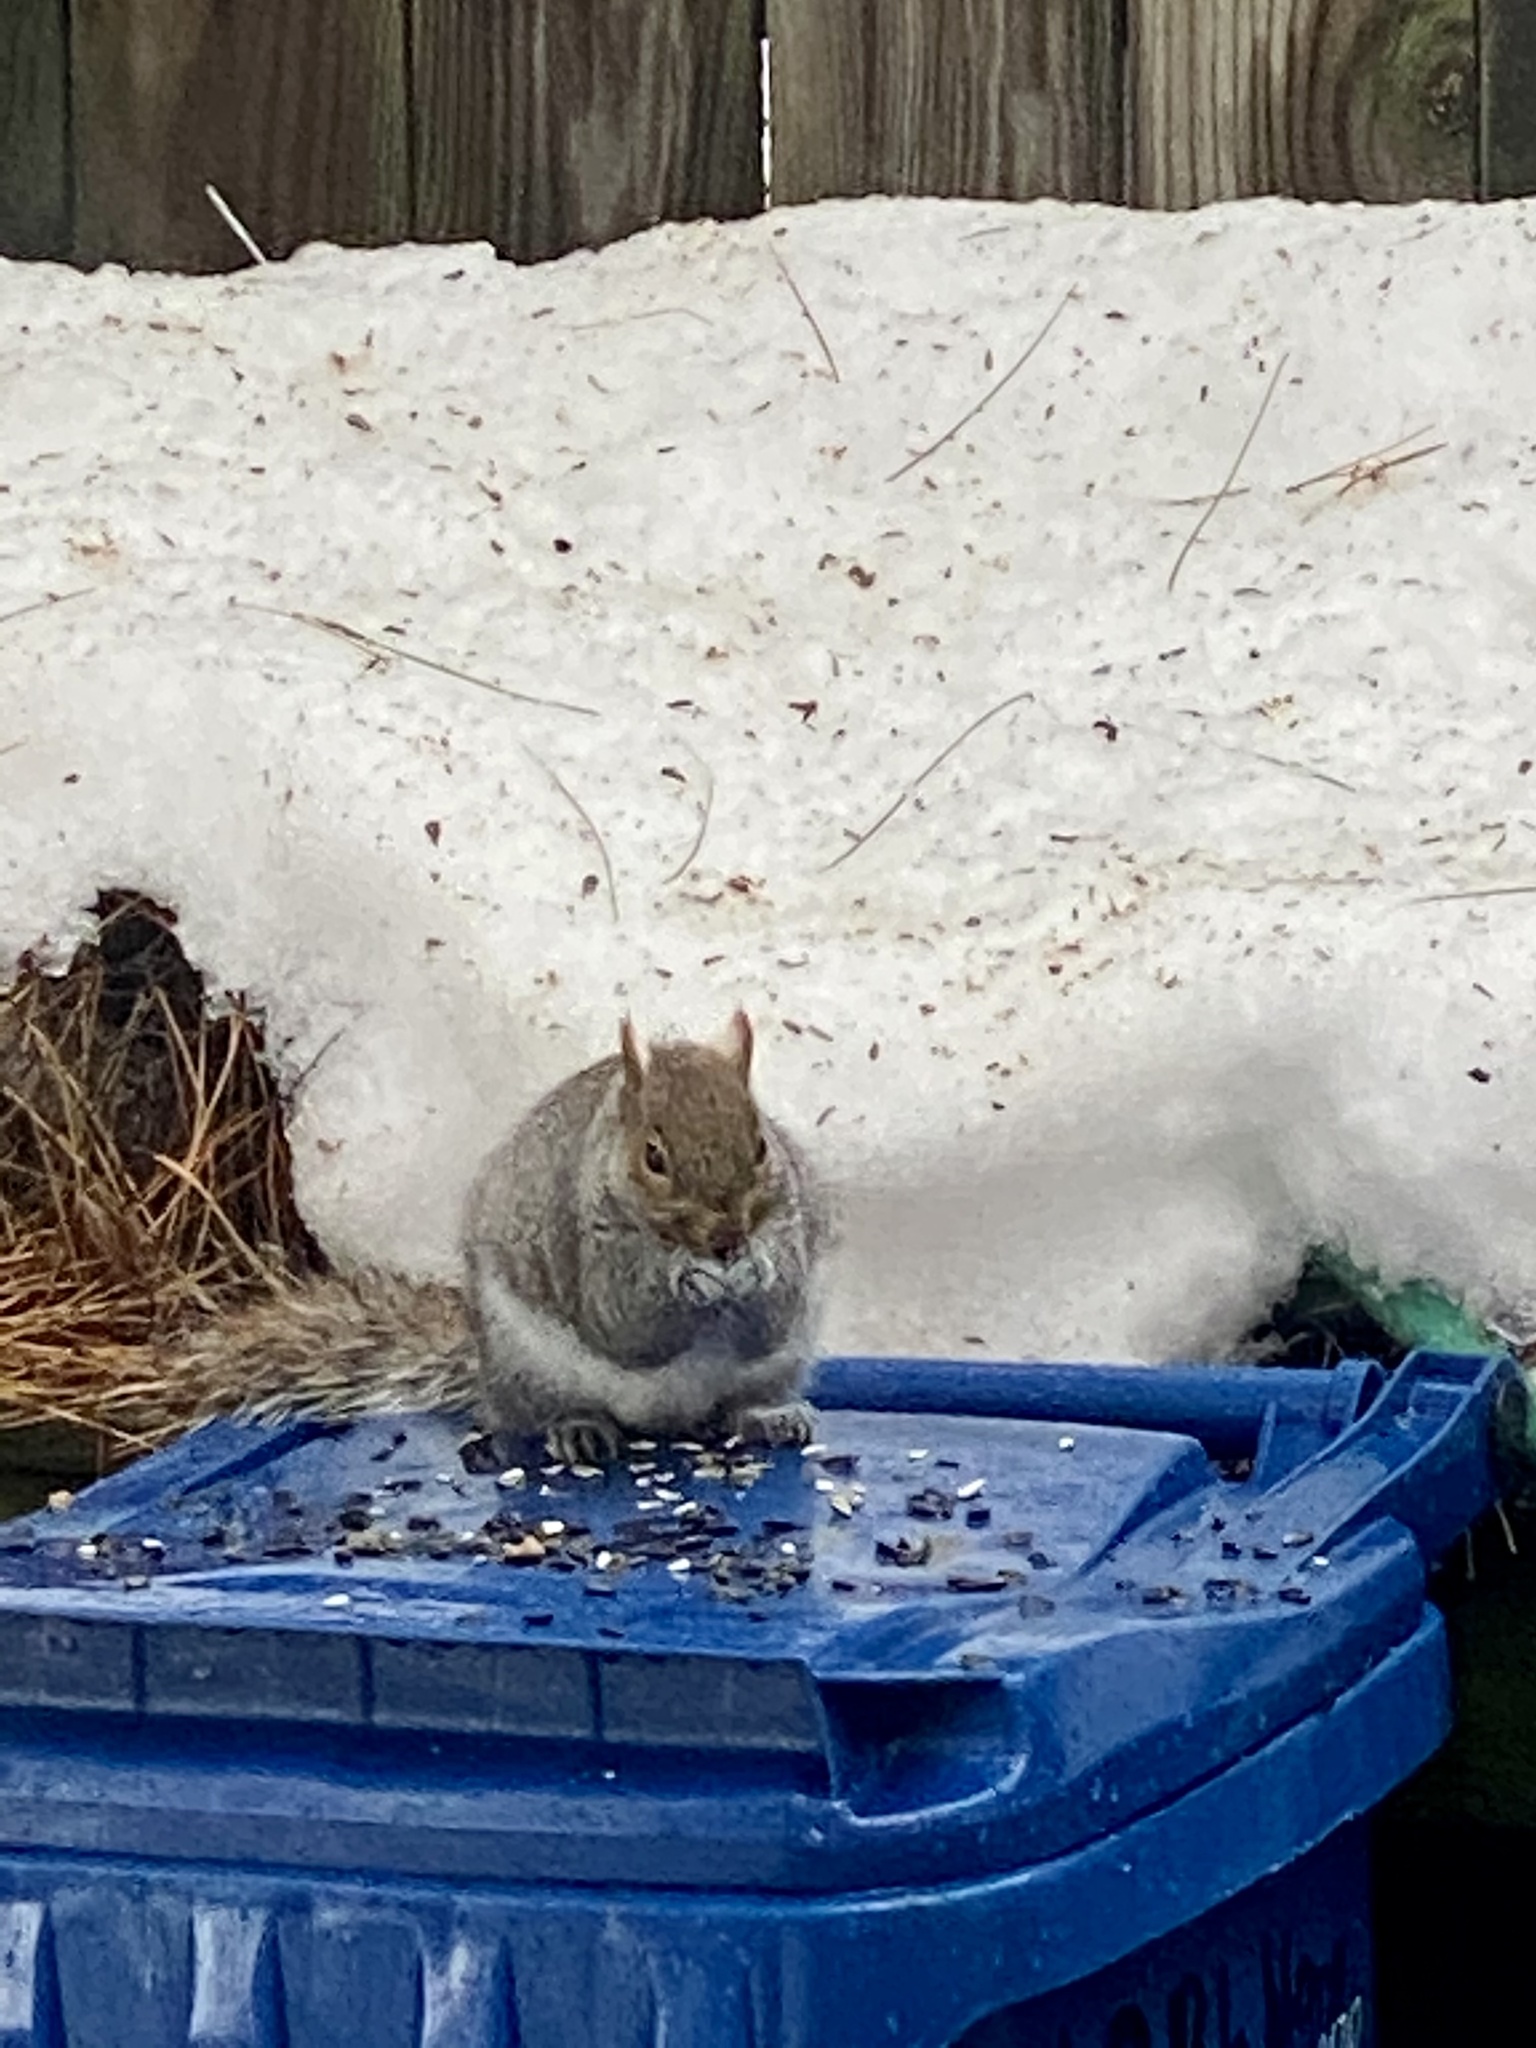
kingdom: Animalia
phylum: Chordata
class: Mammalia
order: Rodentia
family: Sciuridae
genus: Sciurus
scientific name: Sciurus carolinensis
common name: Eastern gray squirrel
